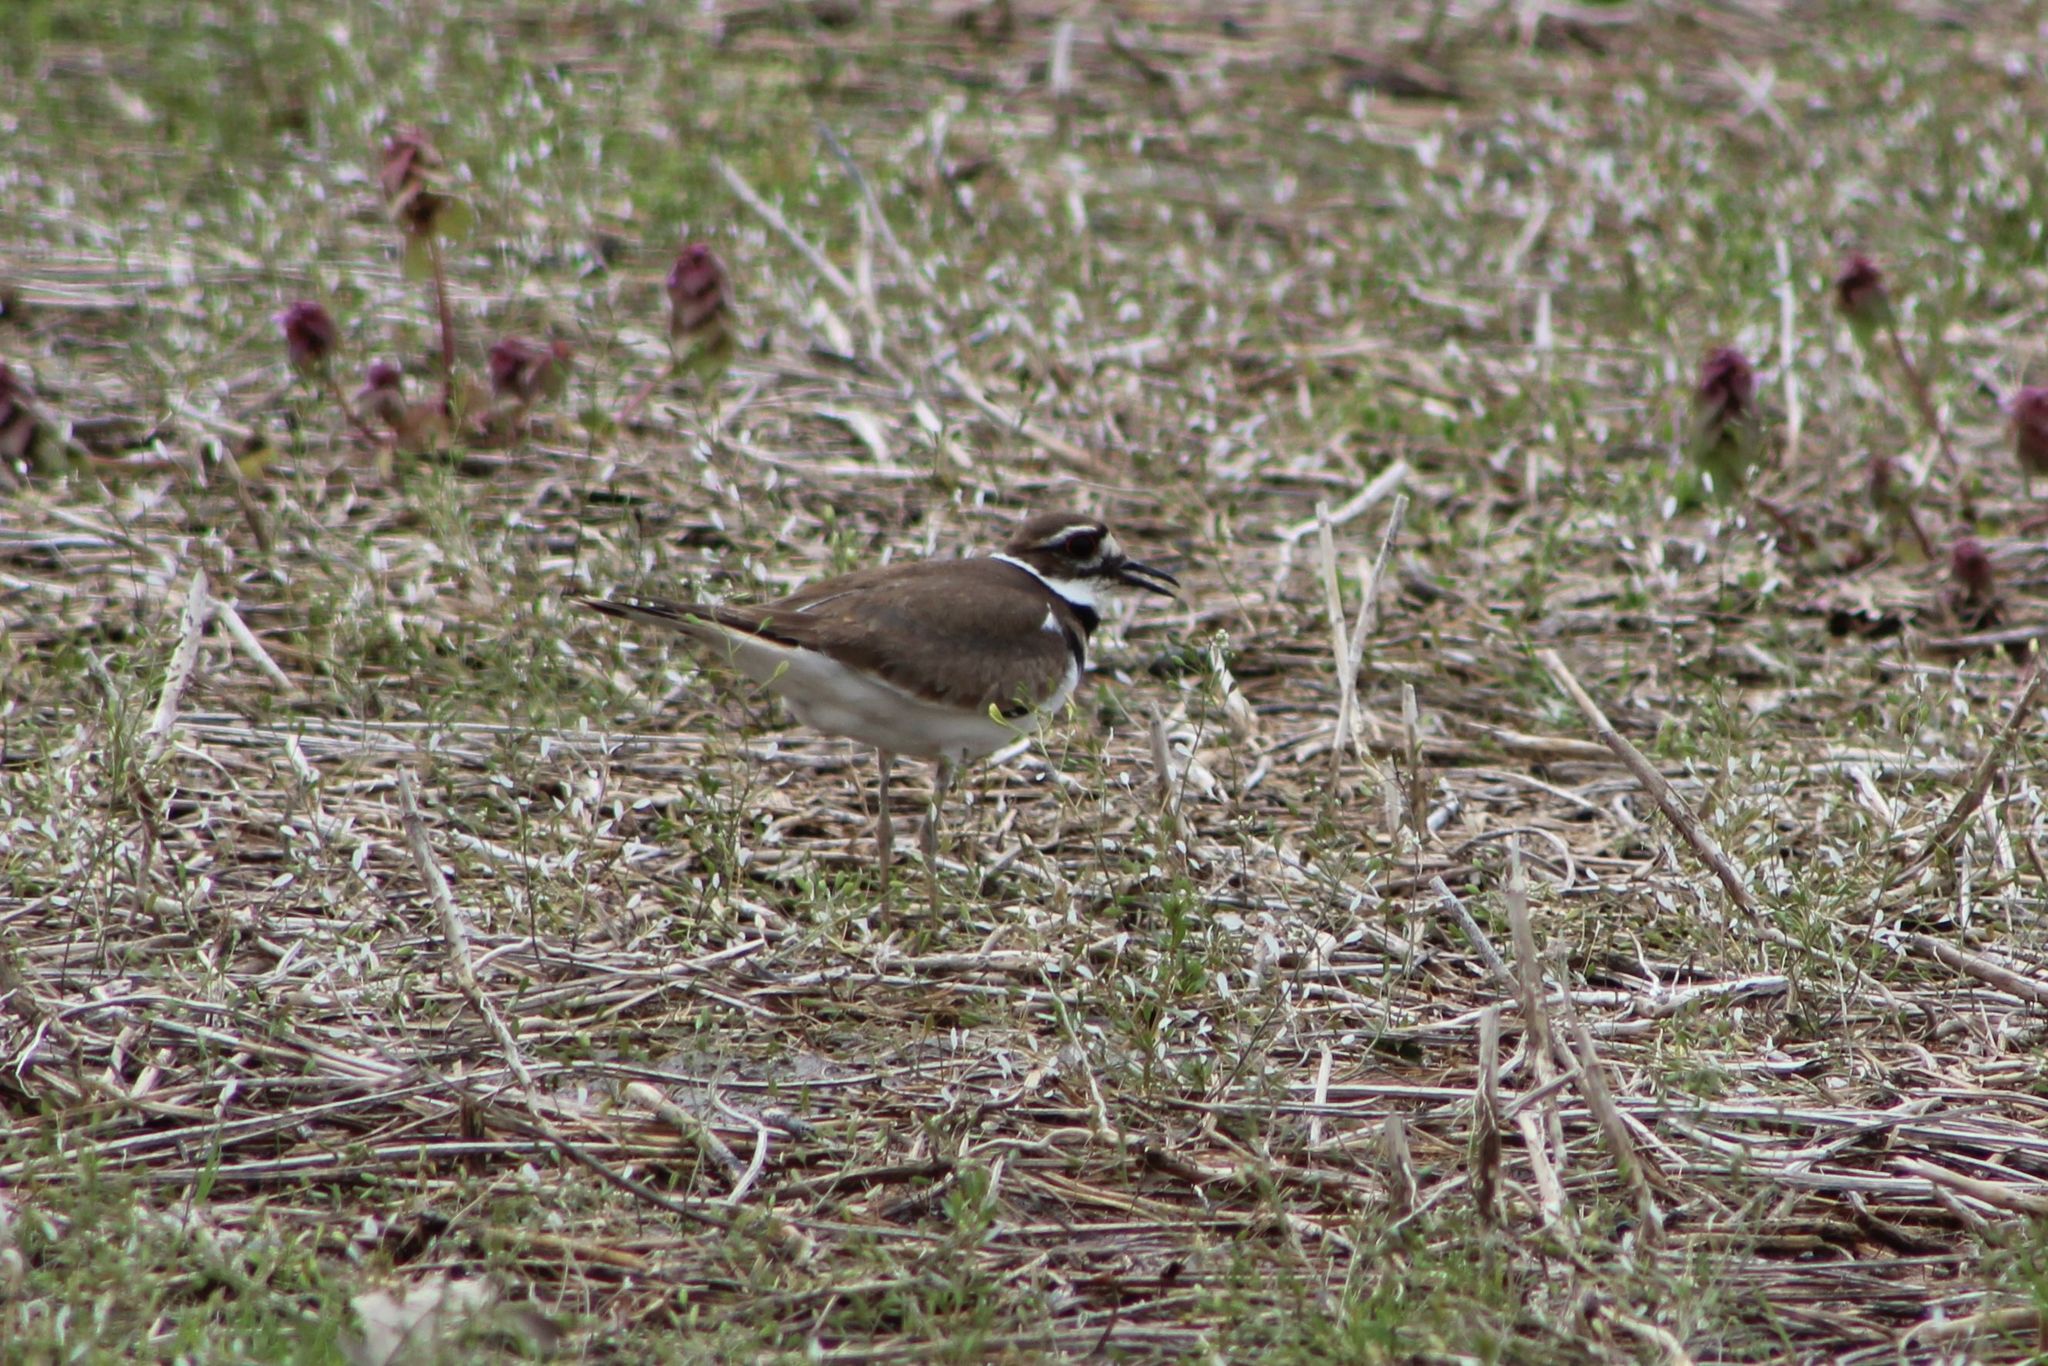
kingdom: Animalia
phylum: Chordata
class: Aves
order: Charadriiformes
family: Charadriidae
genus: Charadrius
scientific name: Charadrius vociferus
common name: Killdeer
